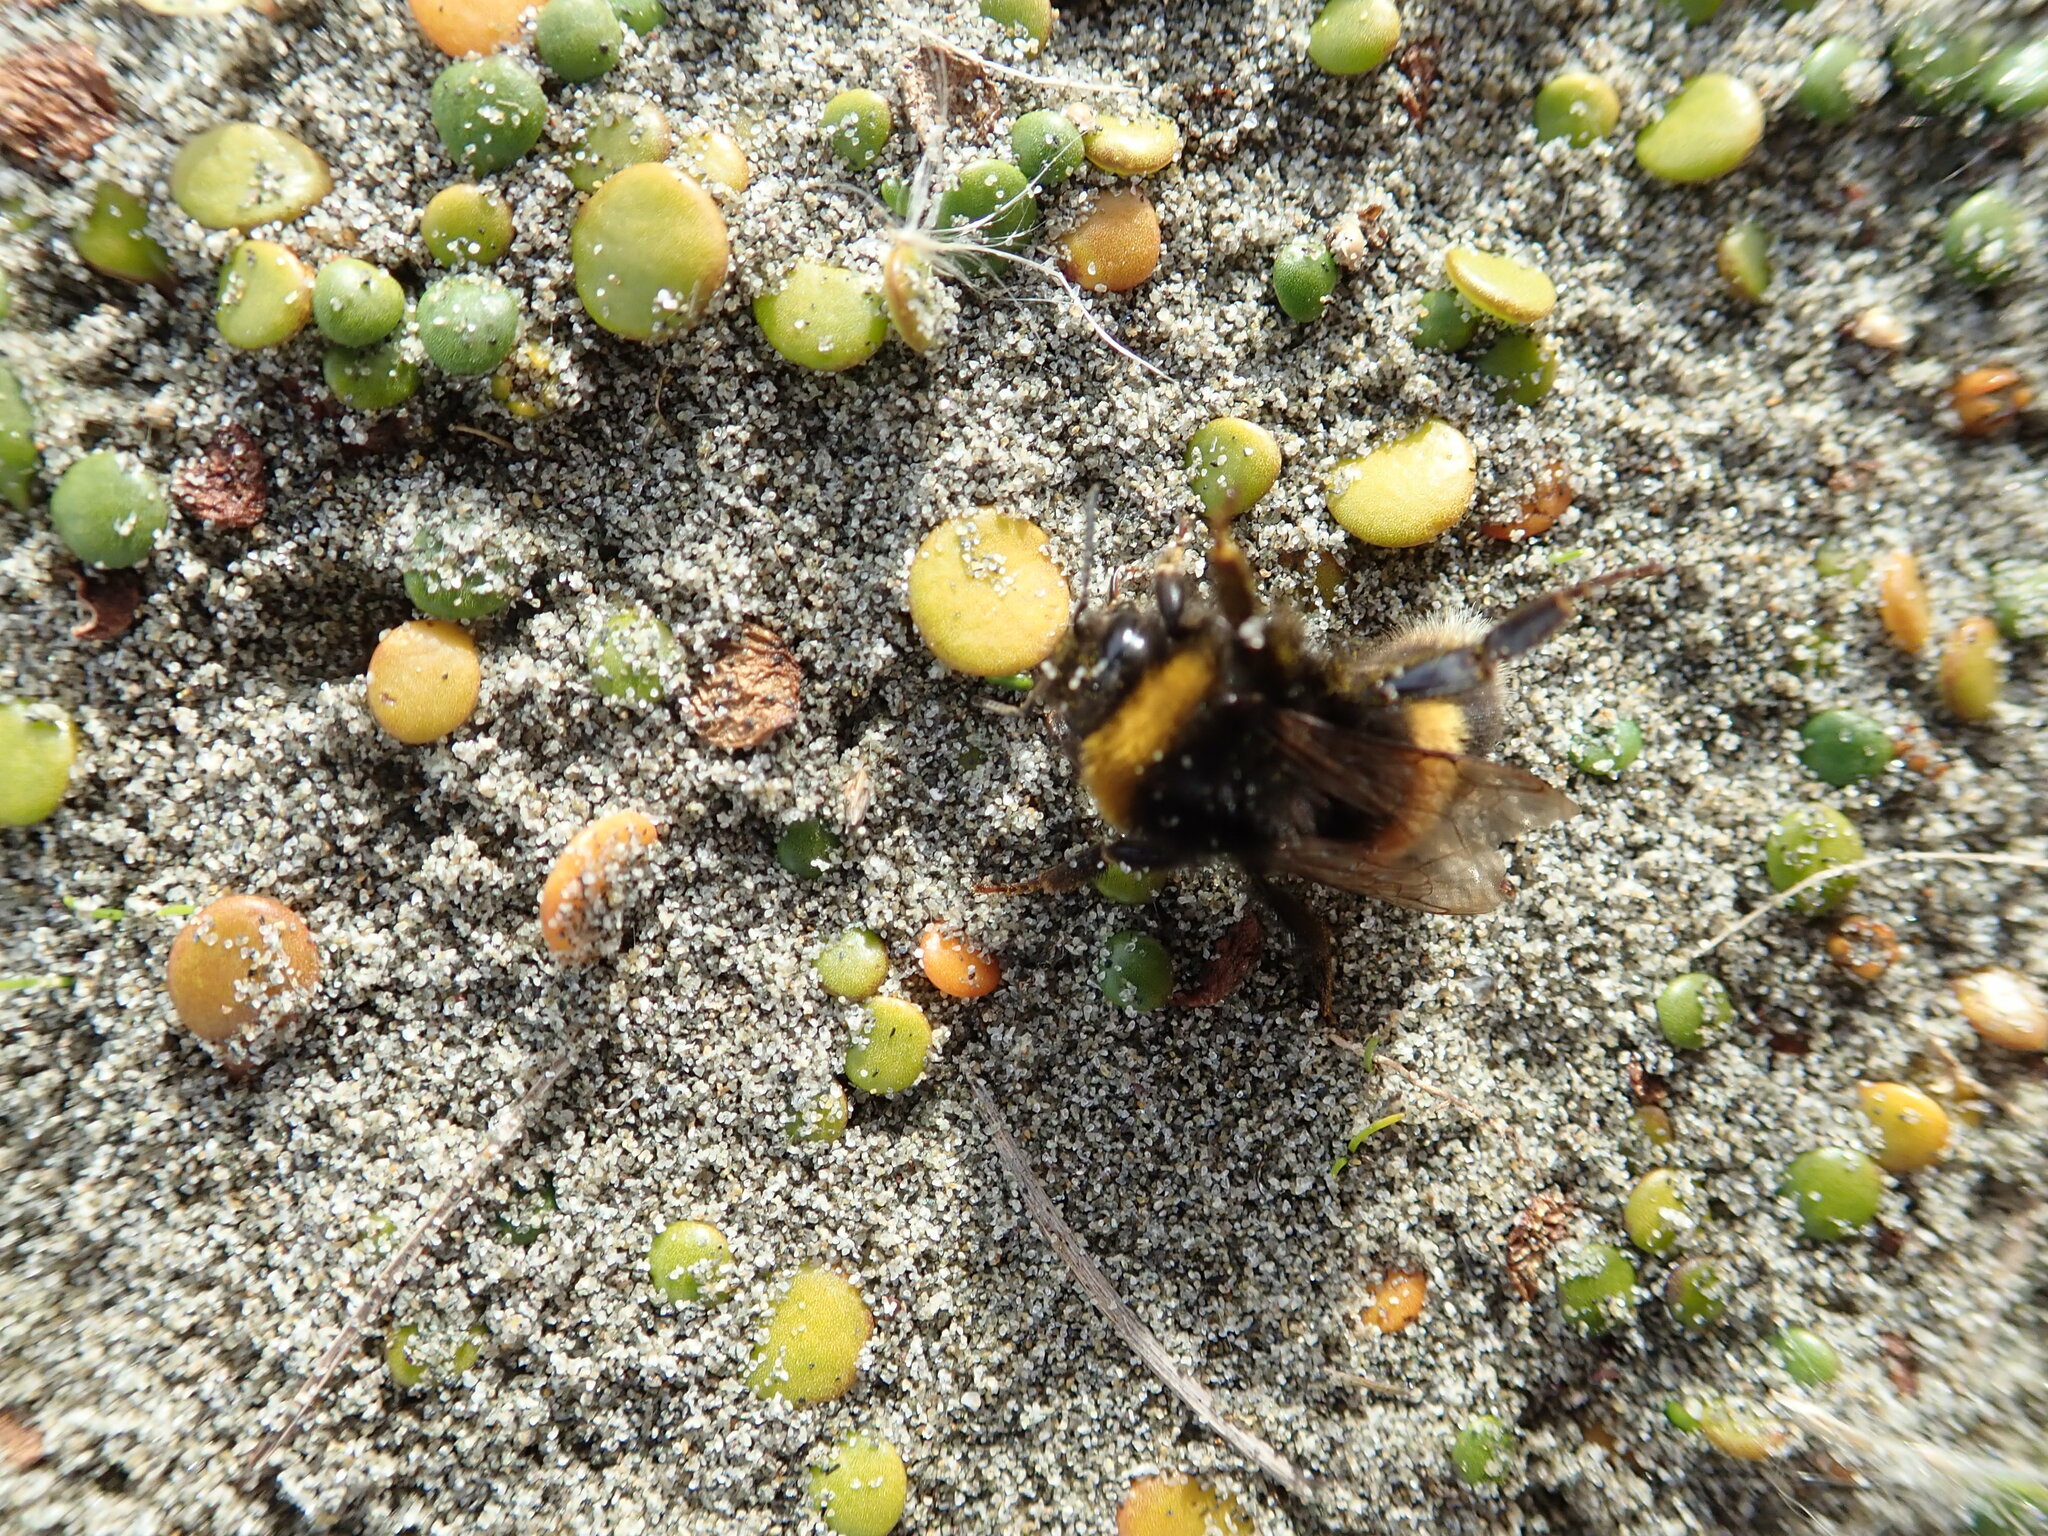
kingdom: Animalia
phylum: Arthropoda
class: Insecta
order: Hymenoptera
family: Apidae
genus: Bombus
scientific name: Bombus terrestris
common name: Buff-tailed bumblebee
